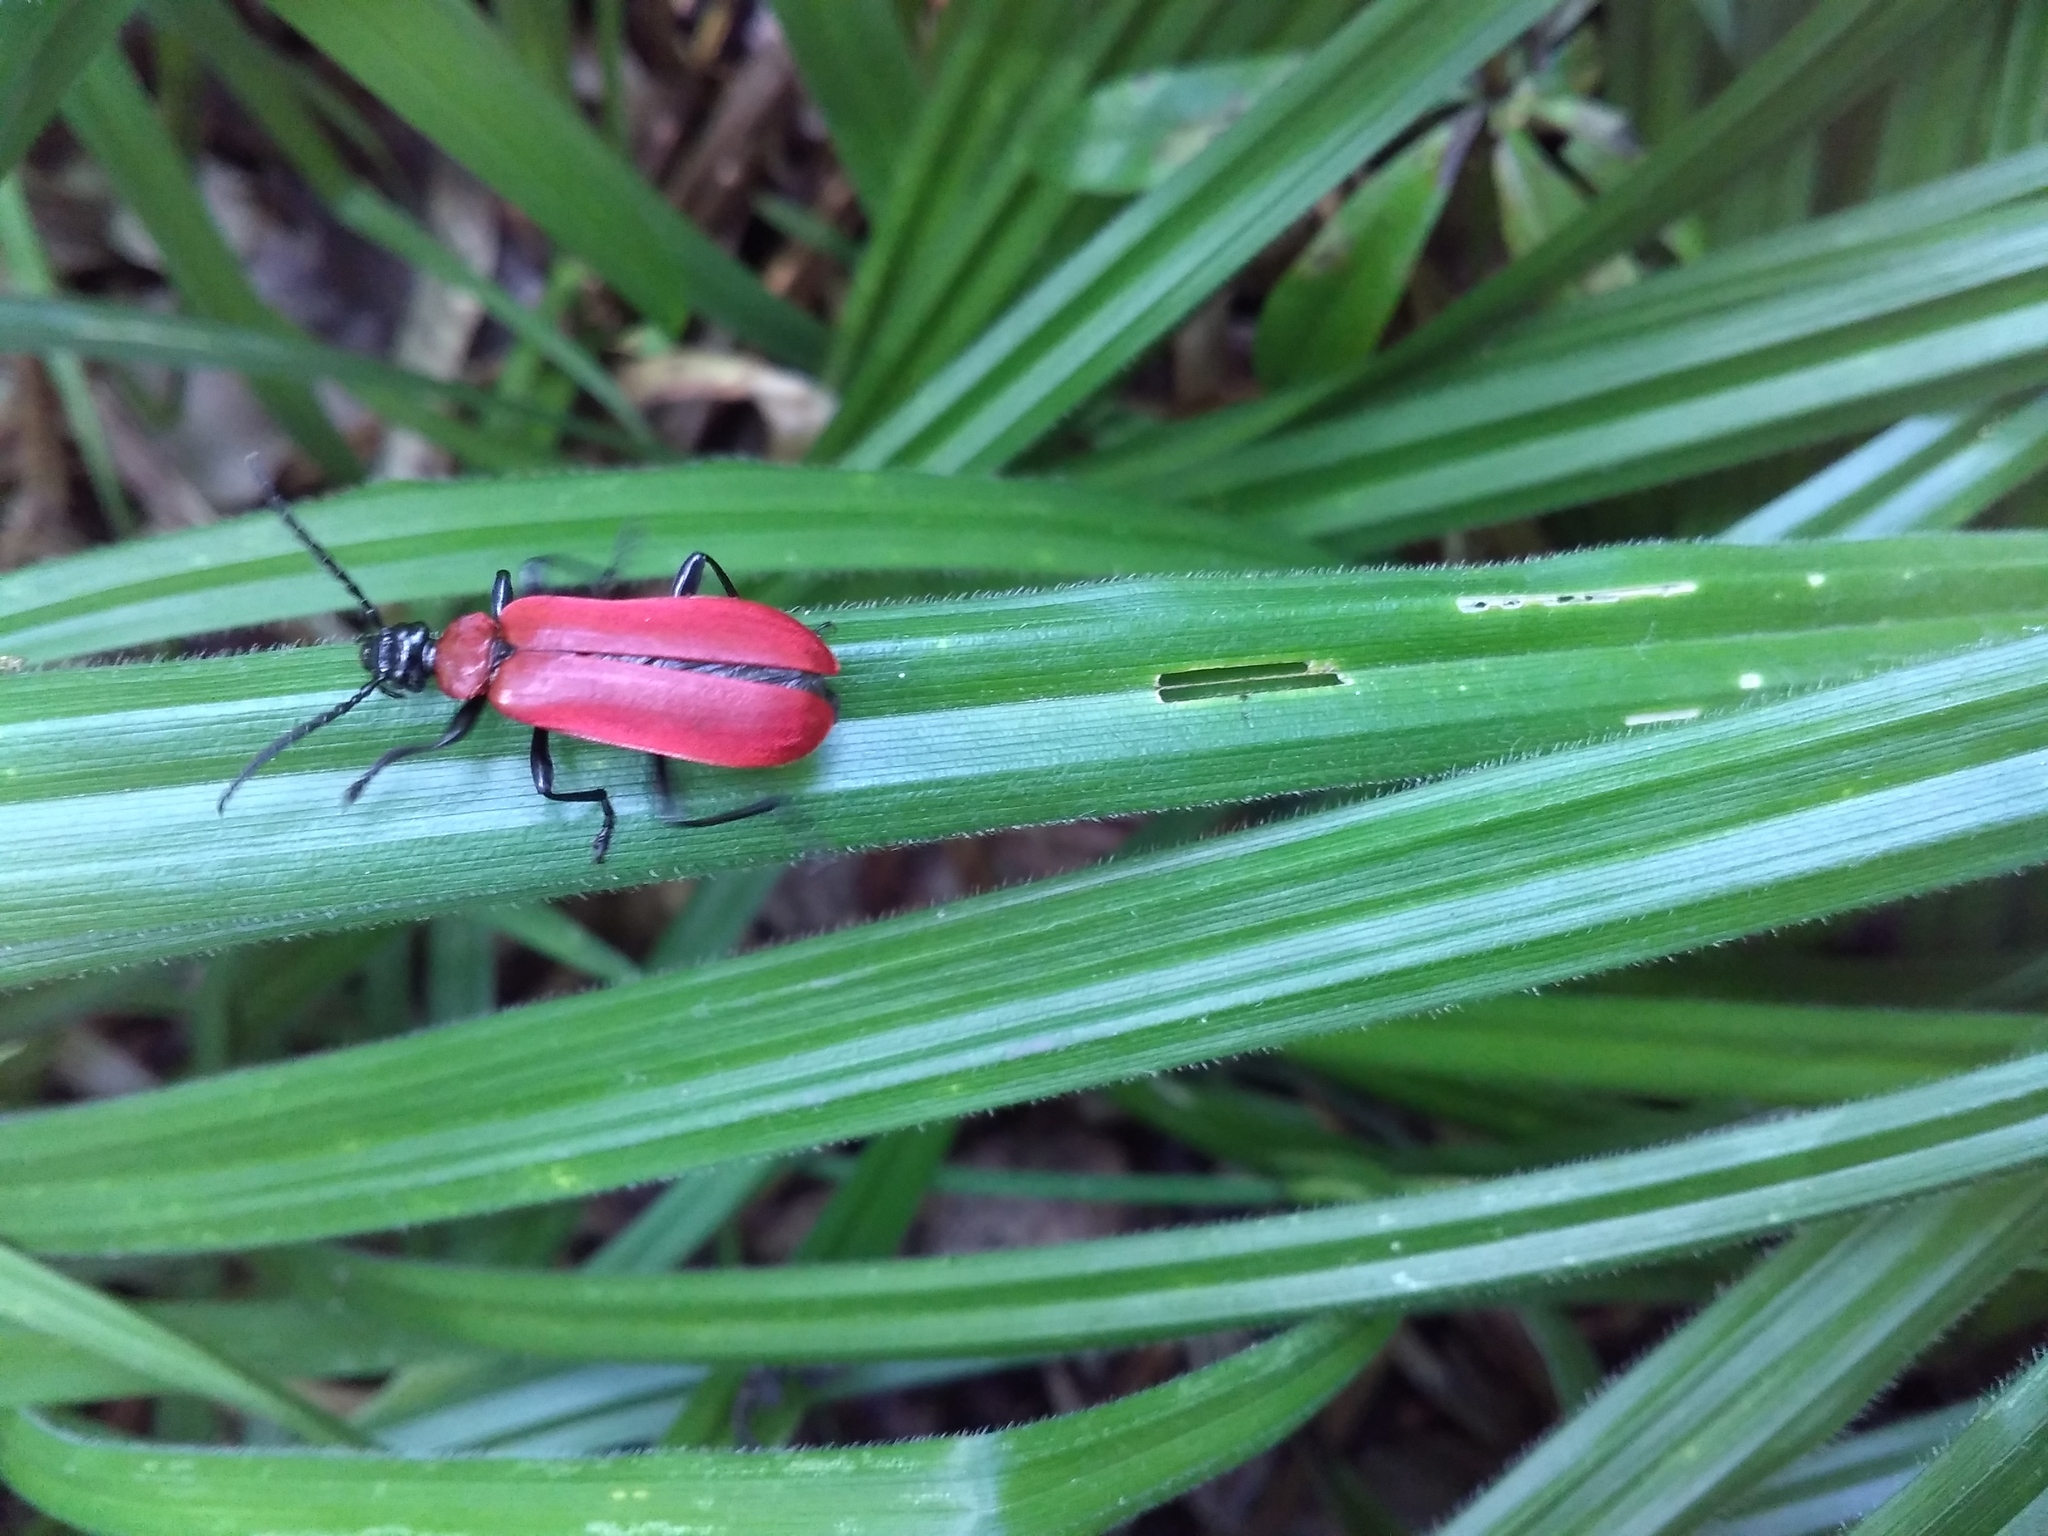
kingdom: Animalia
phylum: Arthropoda
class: Insecta
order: Coleoptera
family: Pyrochroidae
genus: Pyrochroa
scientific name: Pyrochroa coccinea
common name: Black-headed cardinal beetle
